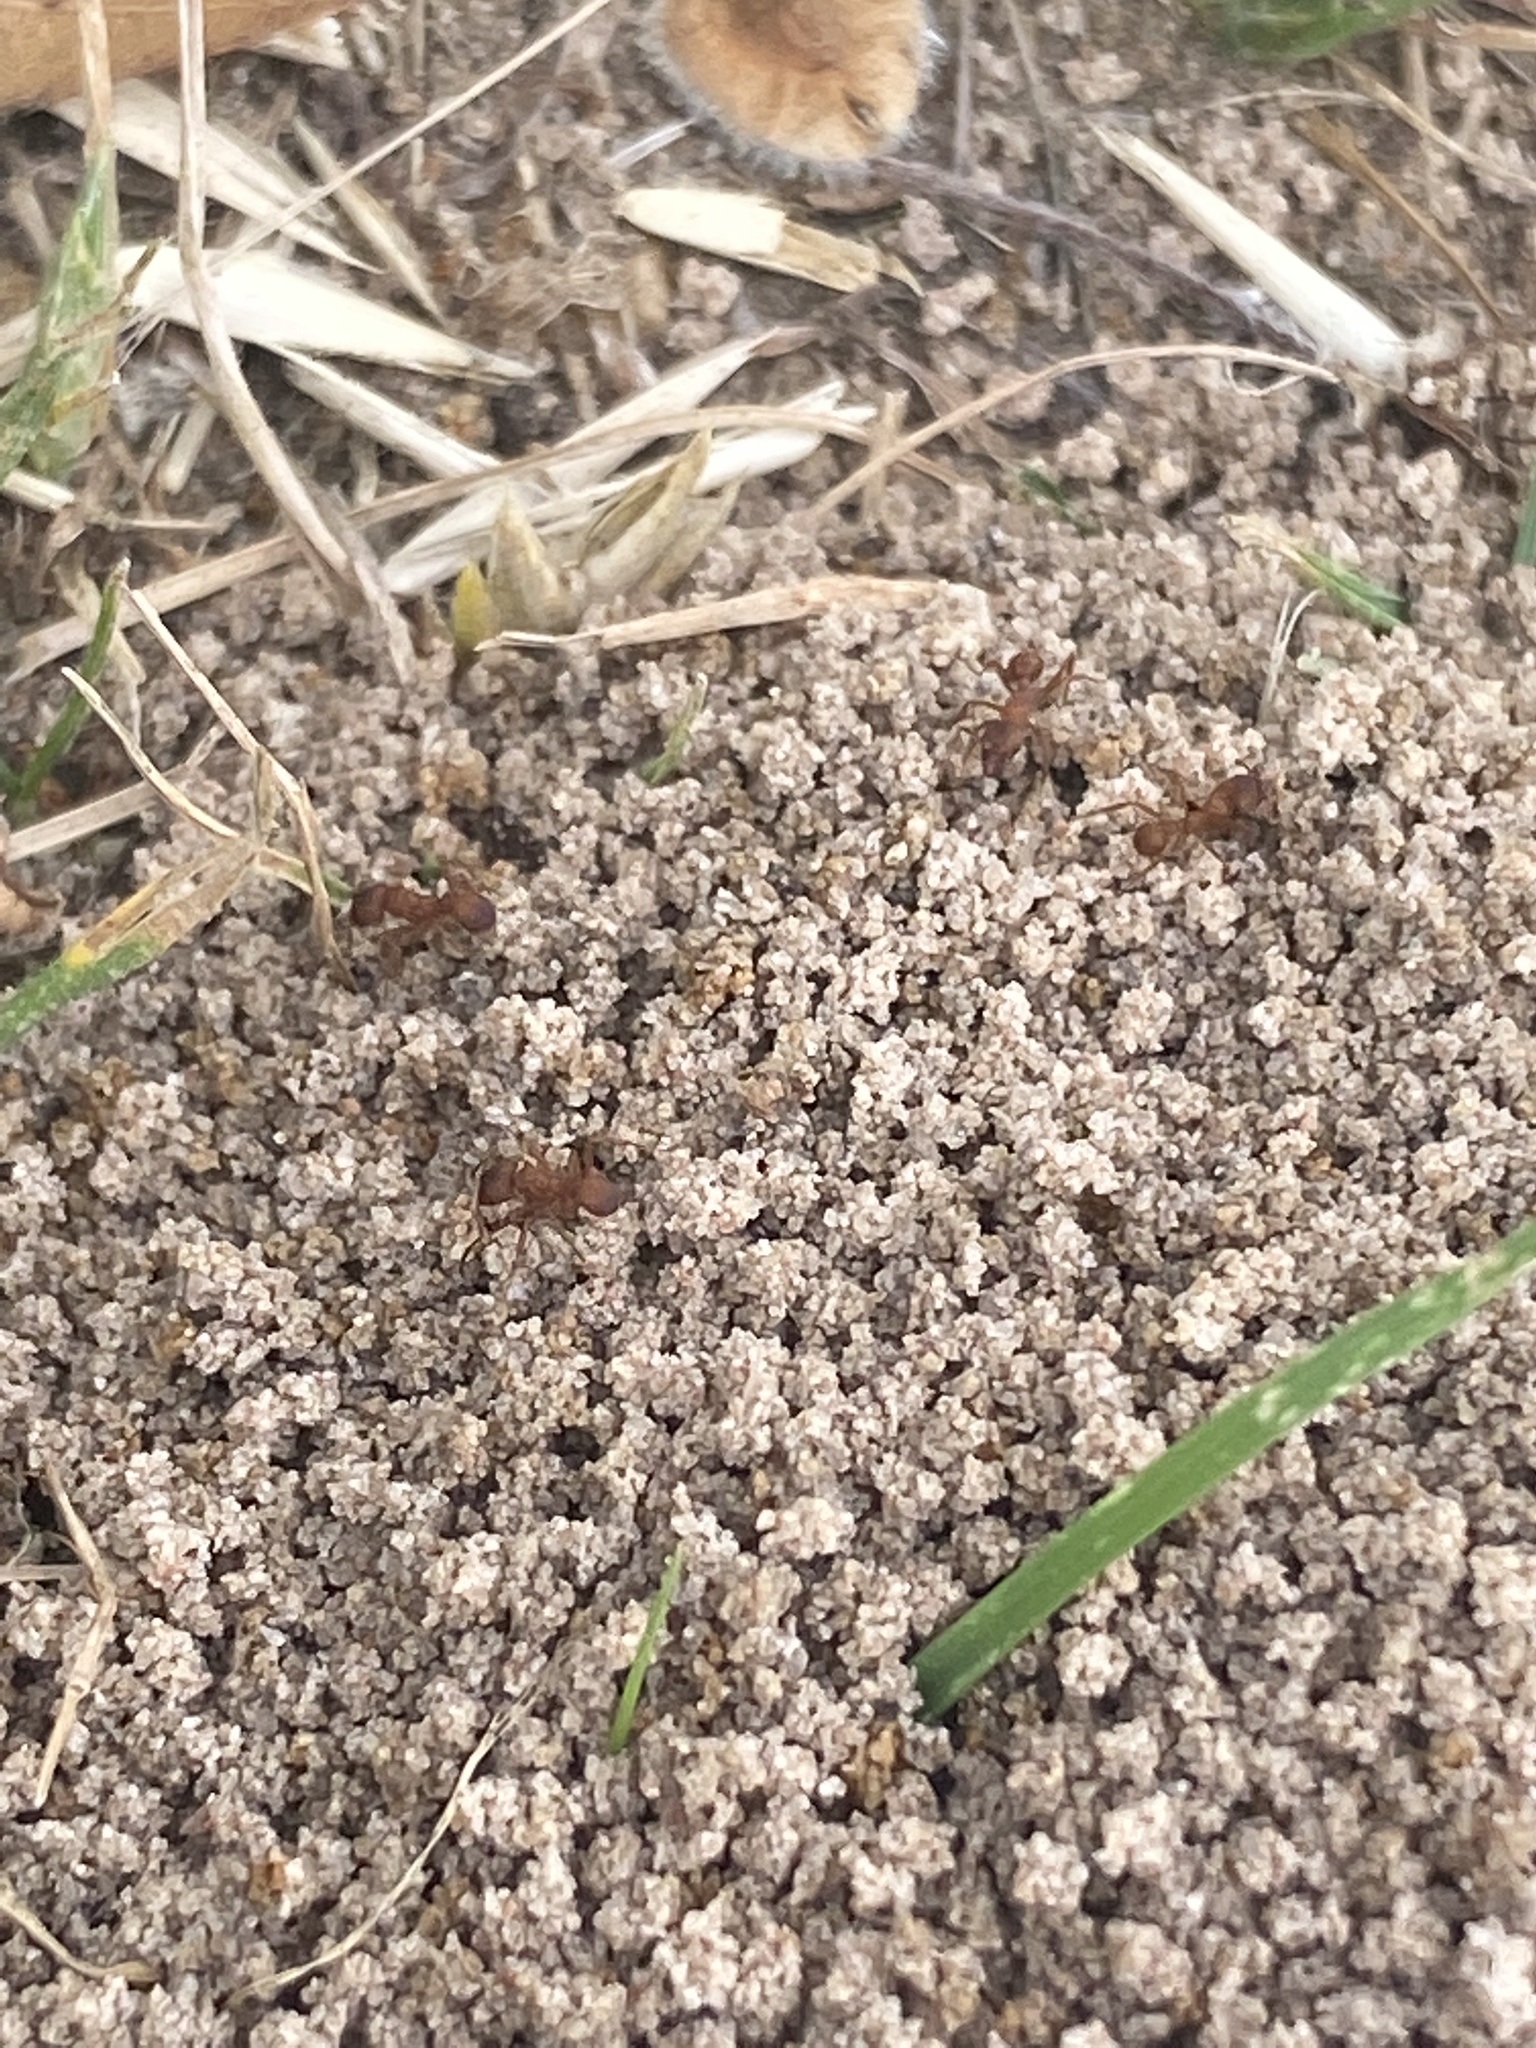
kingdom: Animalia
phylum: Arthropoda
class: Insecta
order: Hymenoptera
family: Formicidae
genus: Trachymyrmex
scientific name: Trachymyrmex septentrionalis
